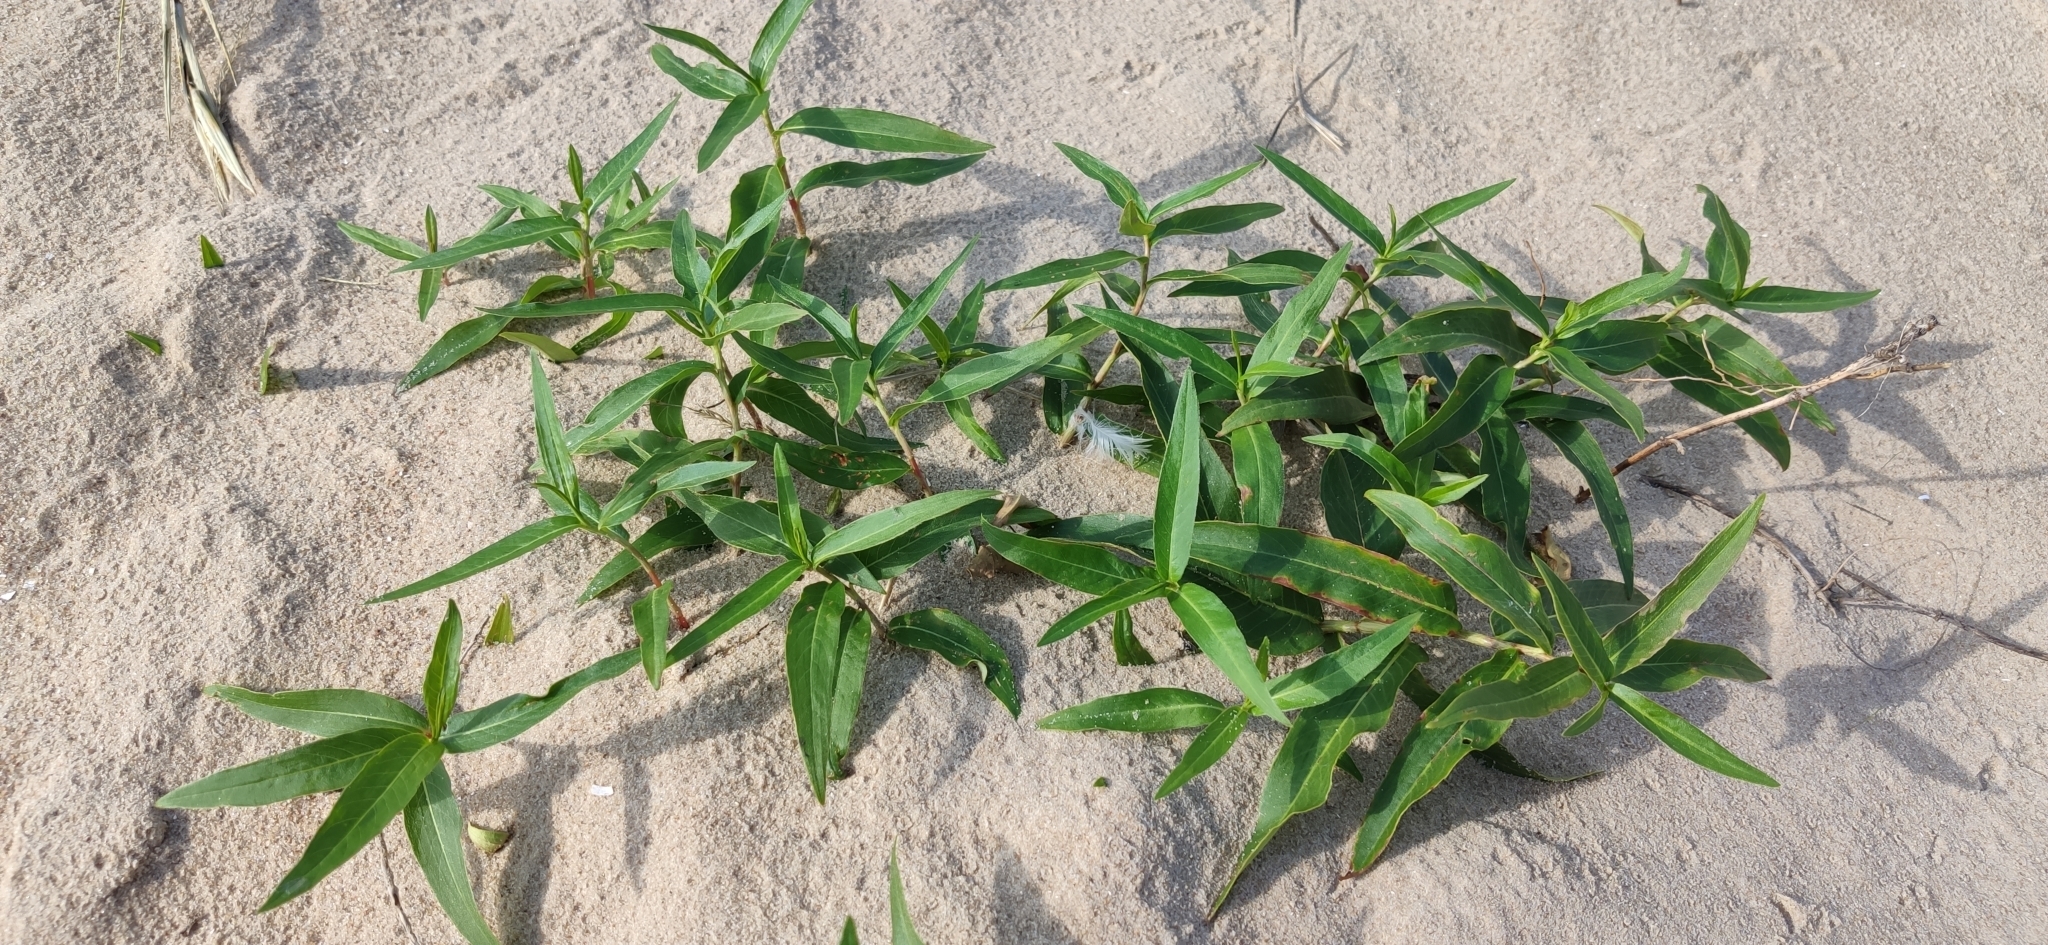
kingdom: Plantae
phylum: Tracheophyta
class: Magnoliopsida
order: Caryophyllales
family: Polygonaceae
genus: Persicaria
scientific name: Persicaria amphibia
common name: Amphibious bistort
